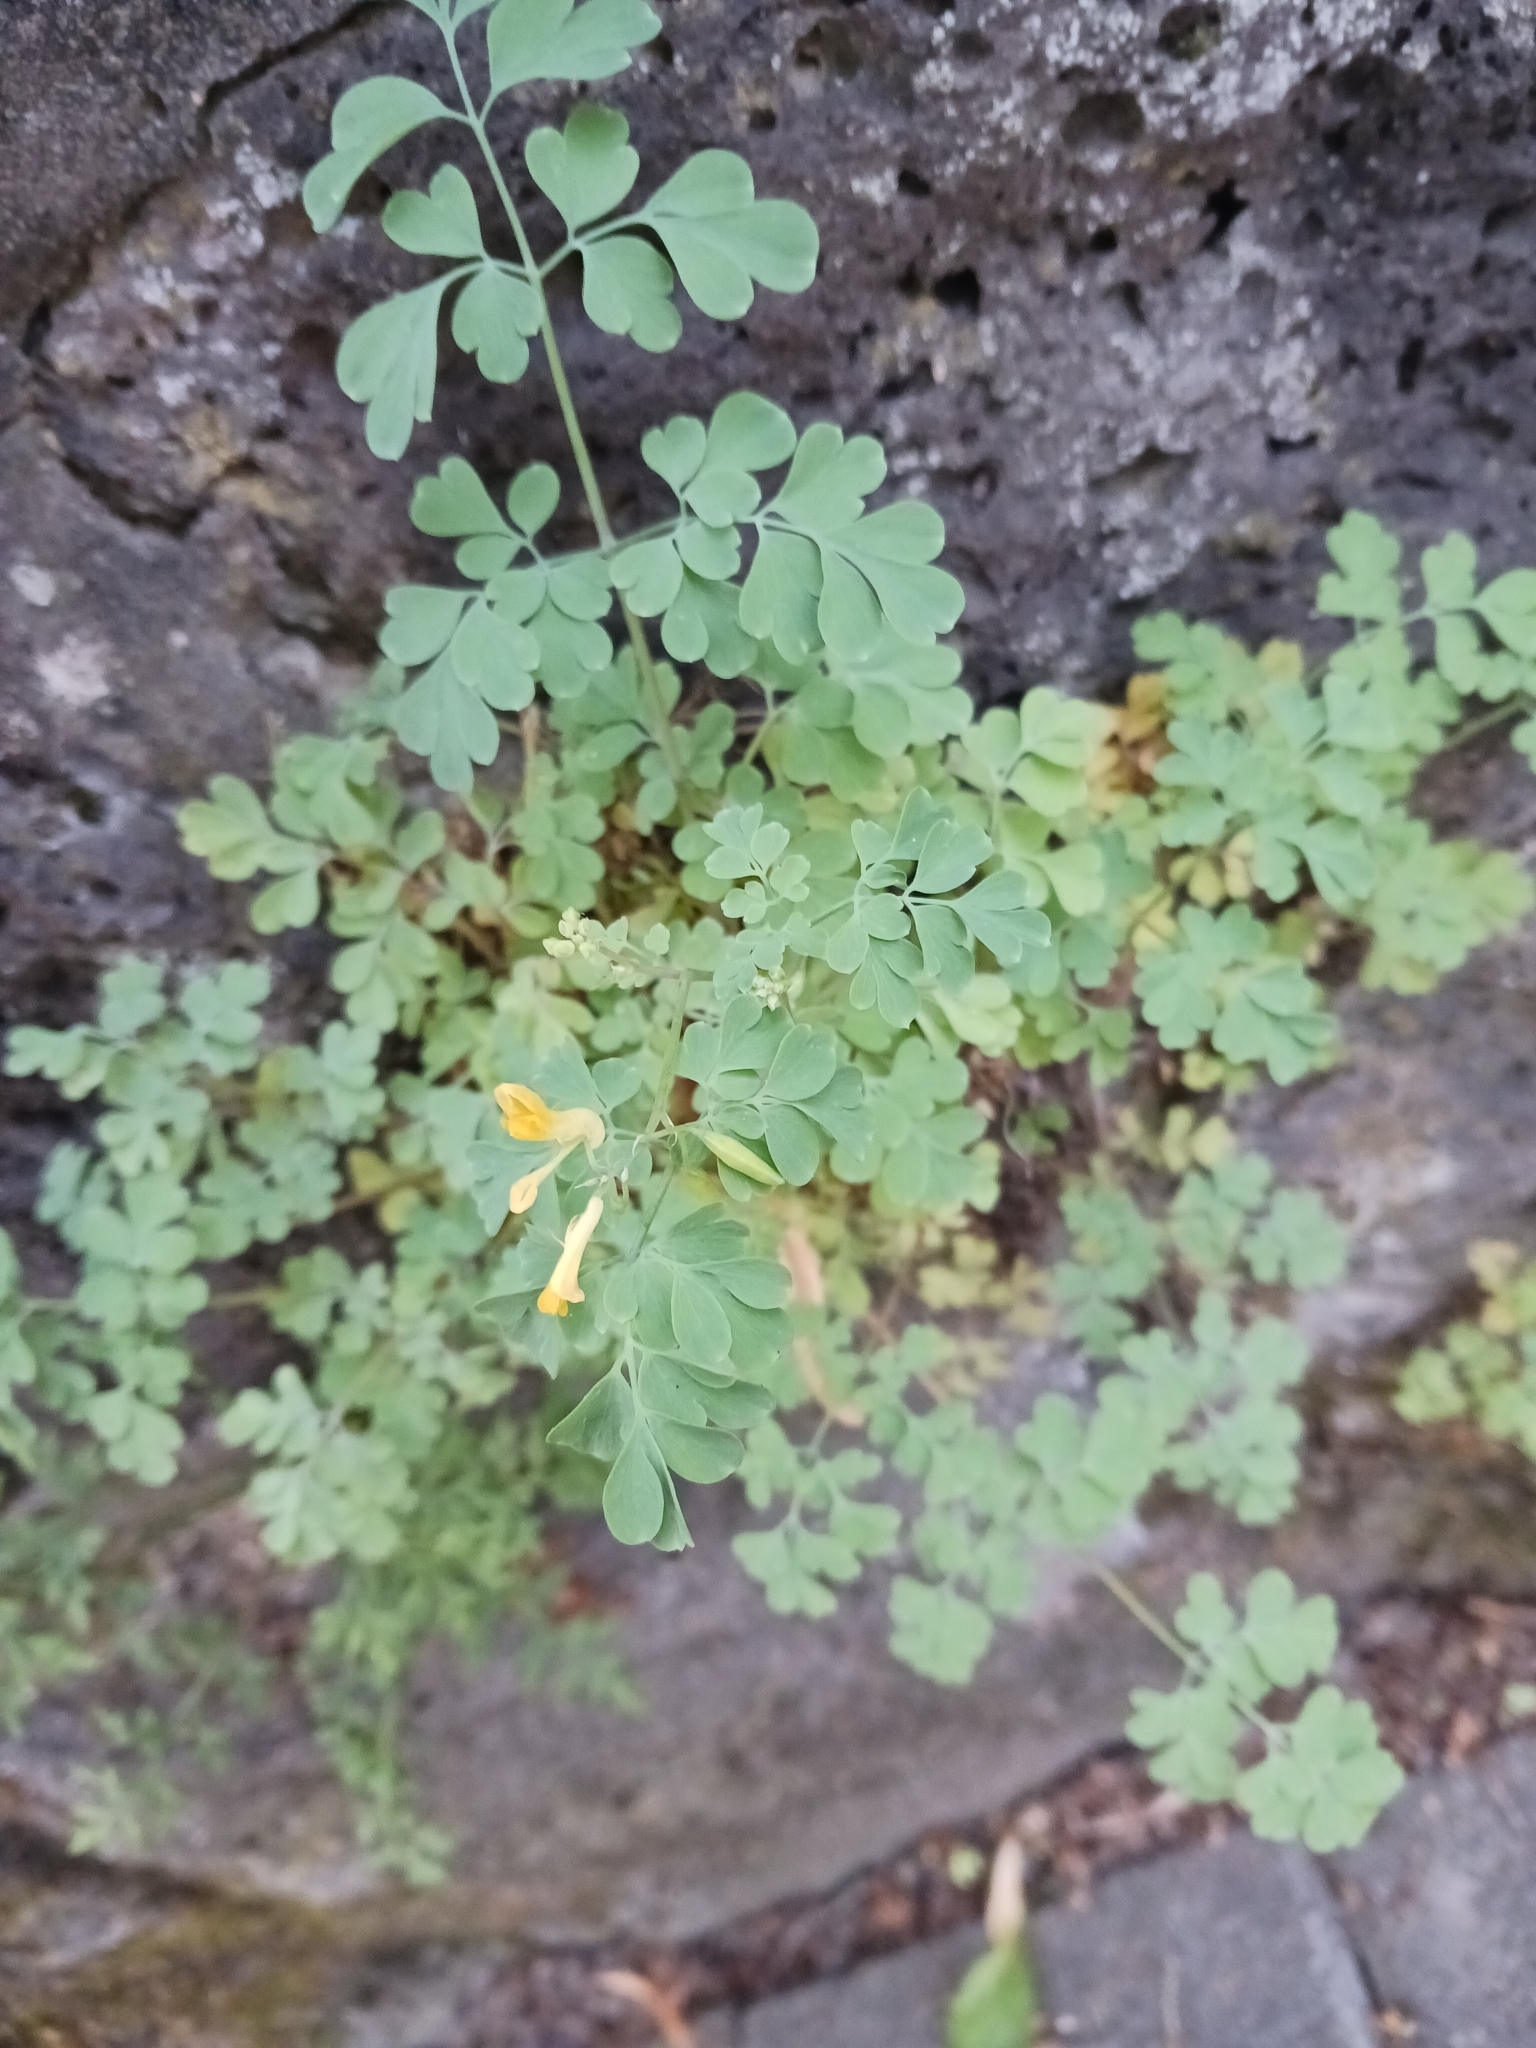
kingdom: Plantae
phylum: Tracheophyta
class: Magnoliopsida
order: Ranunculales
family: Papaveraceae
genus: Pseudofumaria
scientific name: Pseudofumaria lutea
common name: Yellow corydalis
